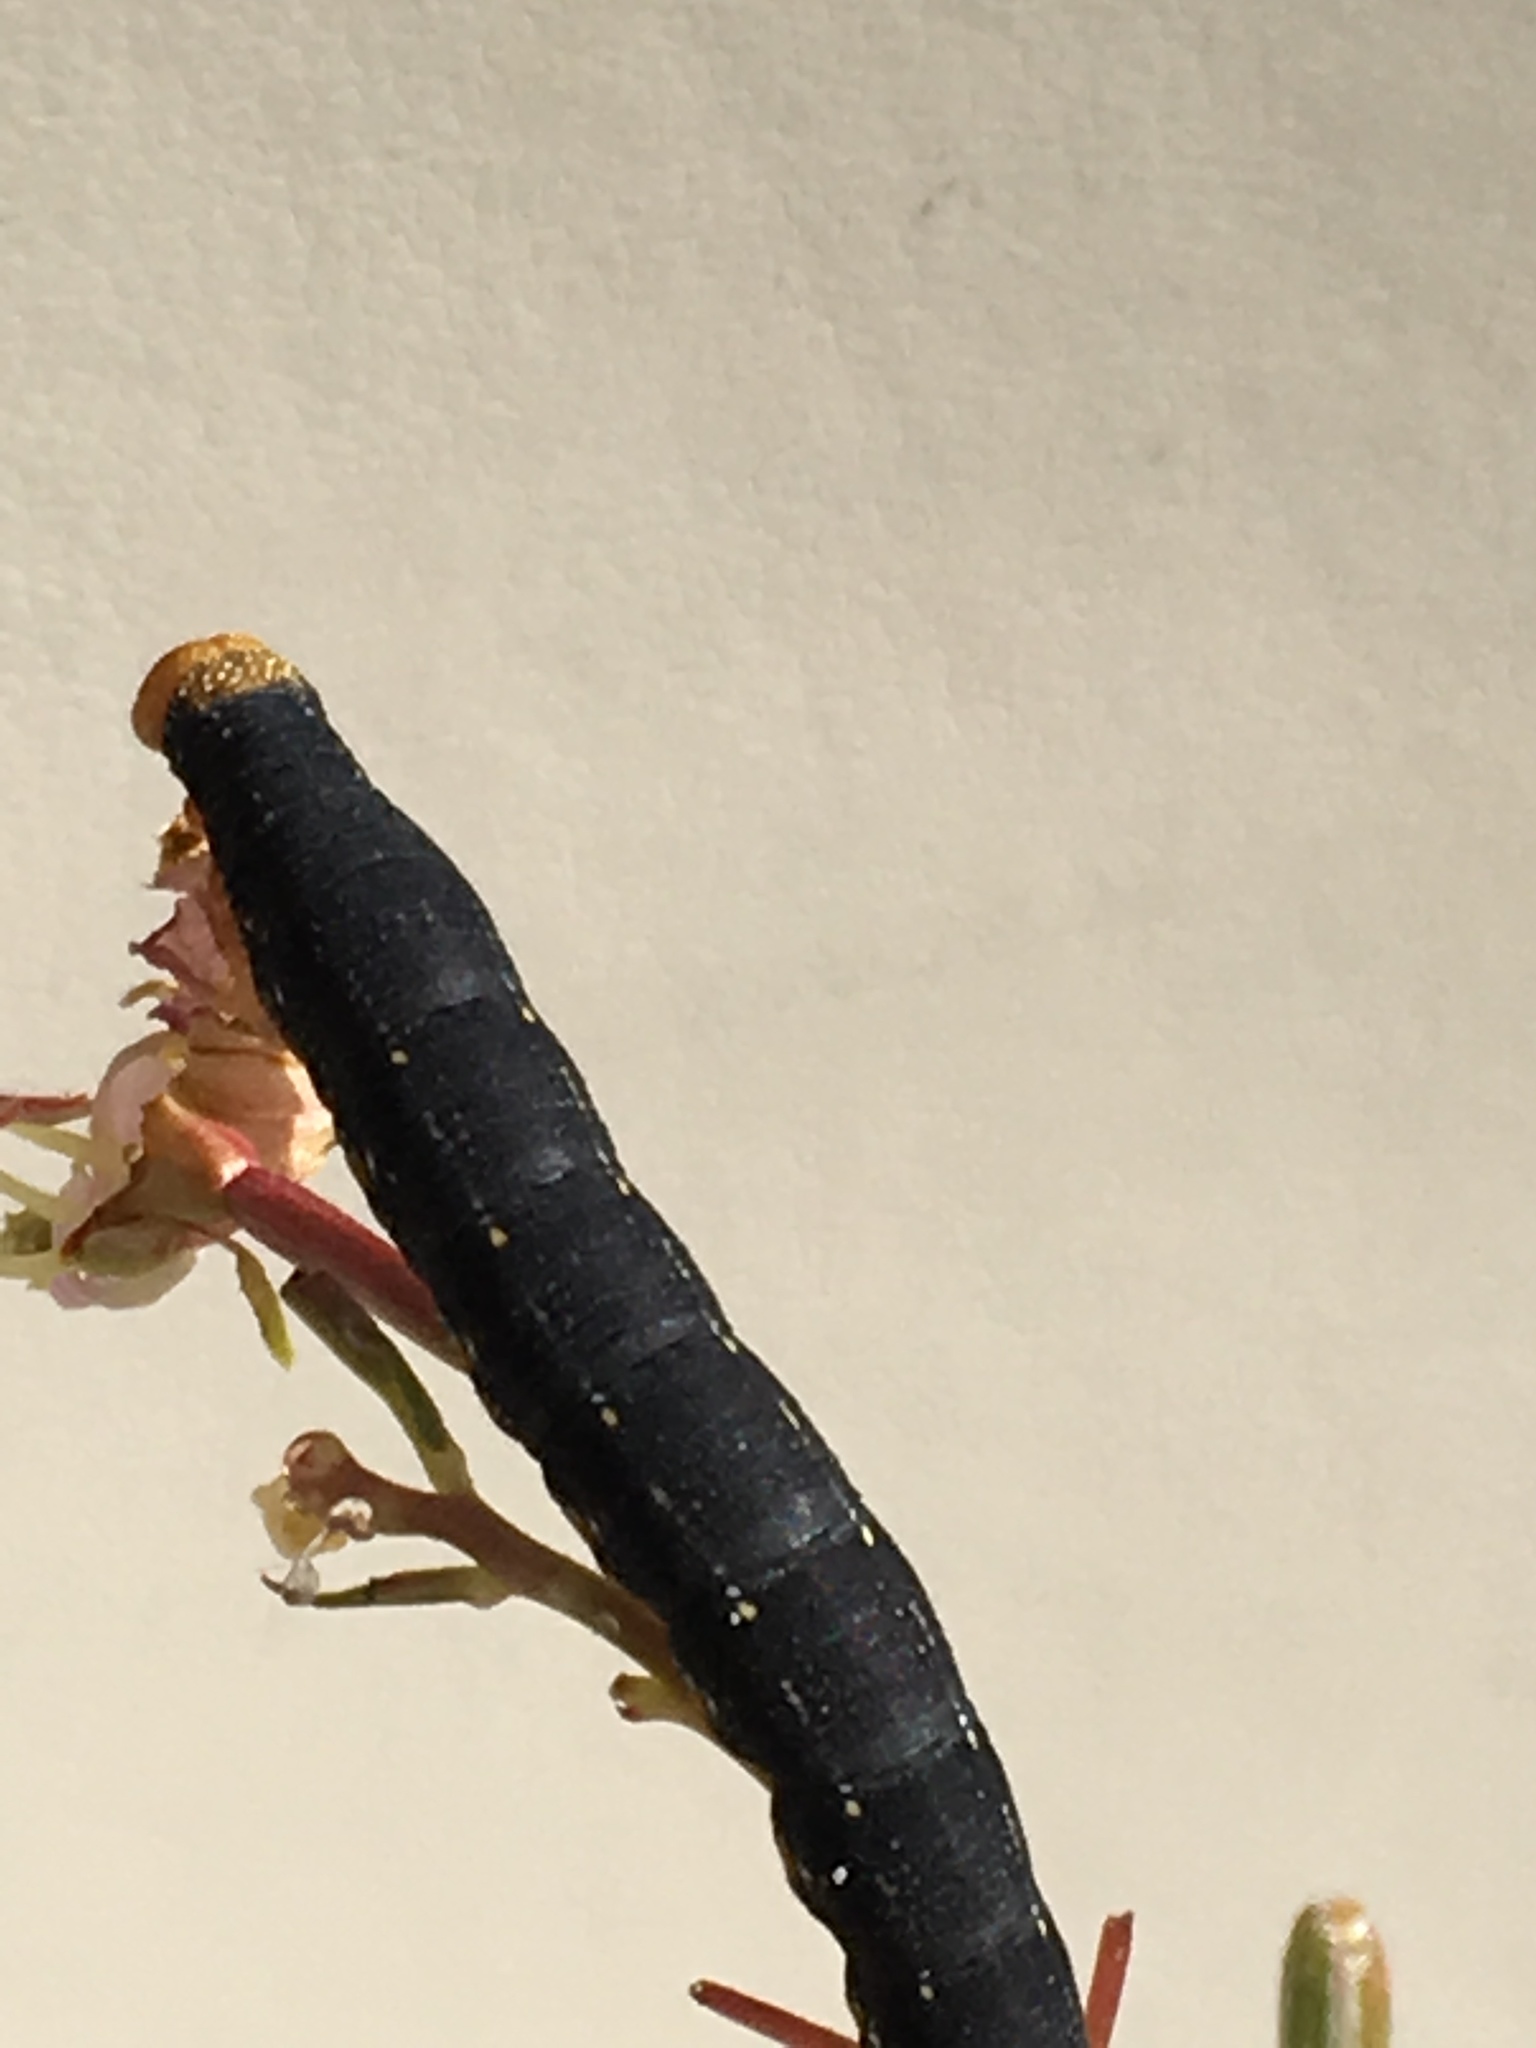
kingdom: Animalia
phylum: Arthropoda
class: Insecta
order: Lepidoptera
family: Sphingidae
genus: Hyles
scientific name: Hyles lineata
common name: White-lined sphinx
